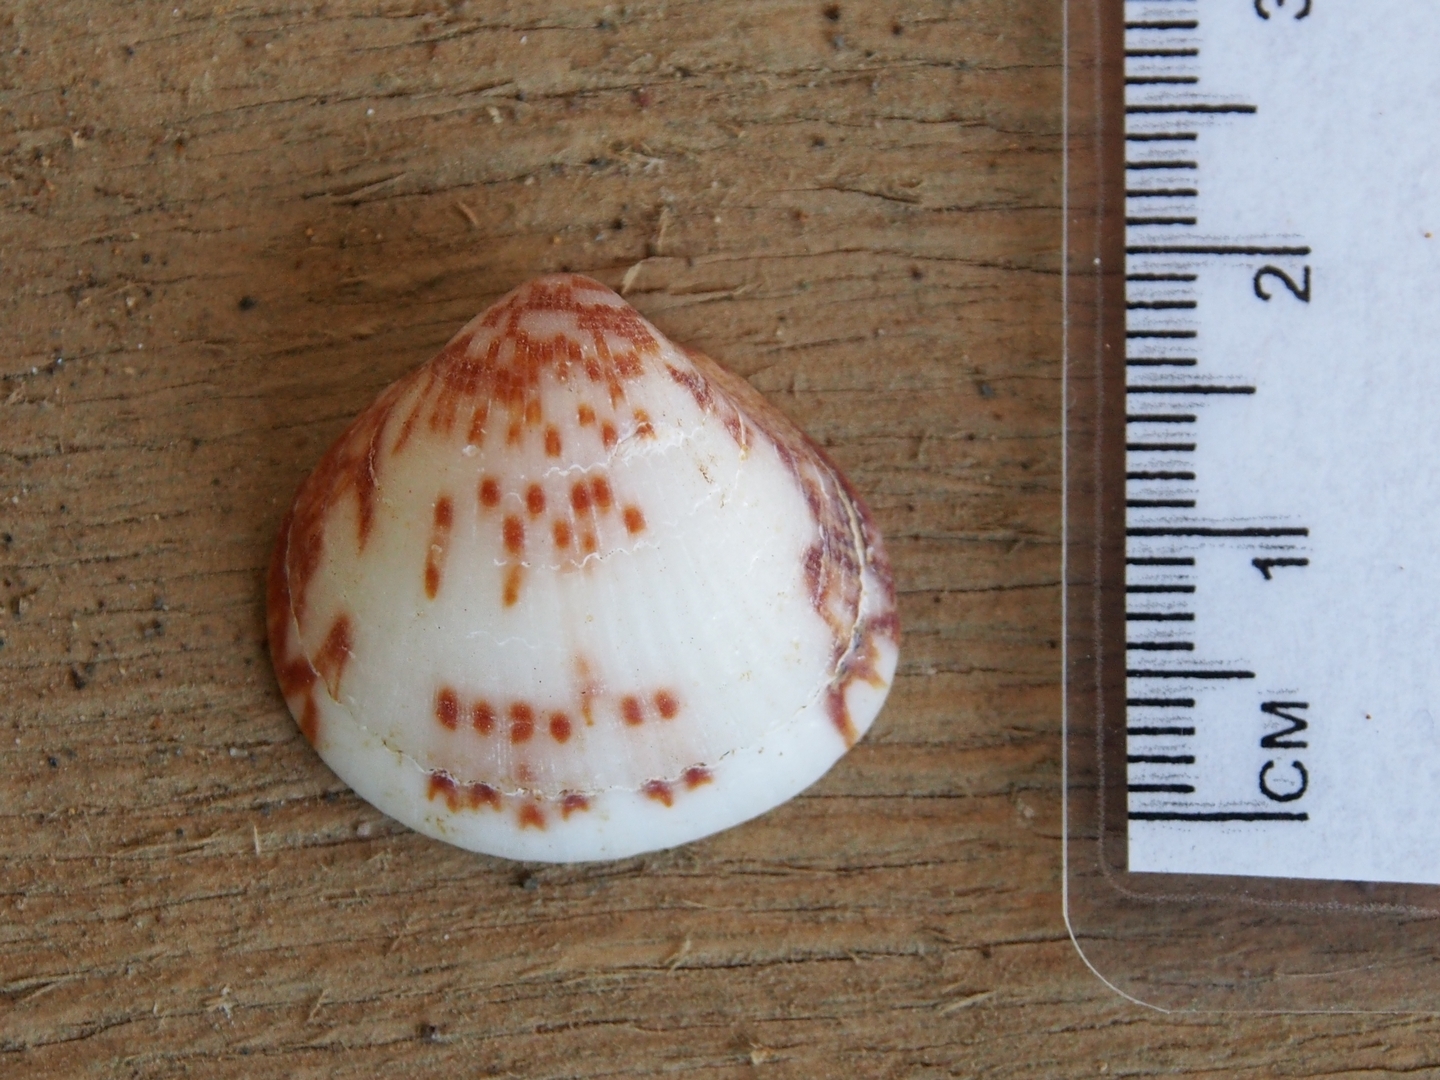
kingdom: Animalia
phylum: Mollusca
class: Bivalvia
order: Arcida
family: Glycymerididae
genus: Glycymeris
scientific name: Glycymeris spectralis
